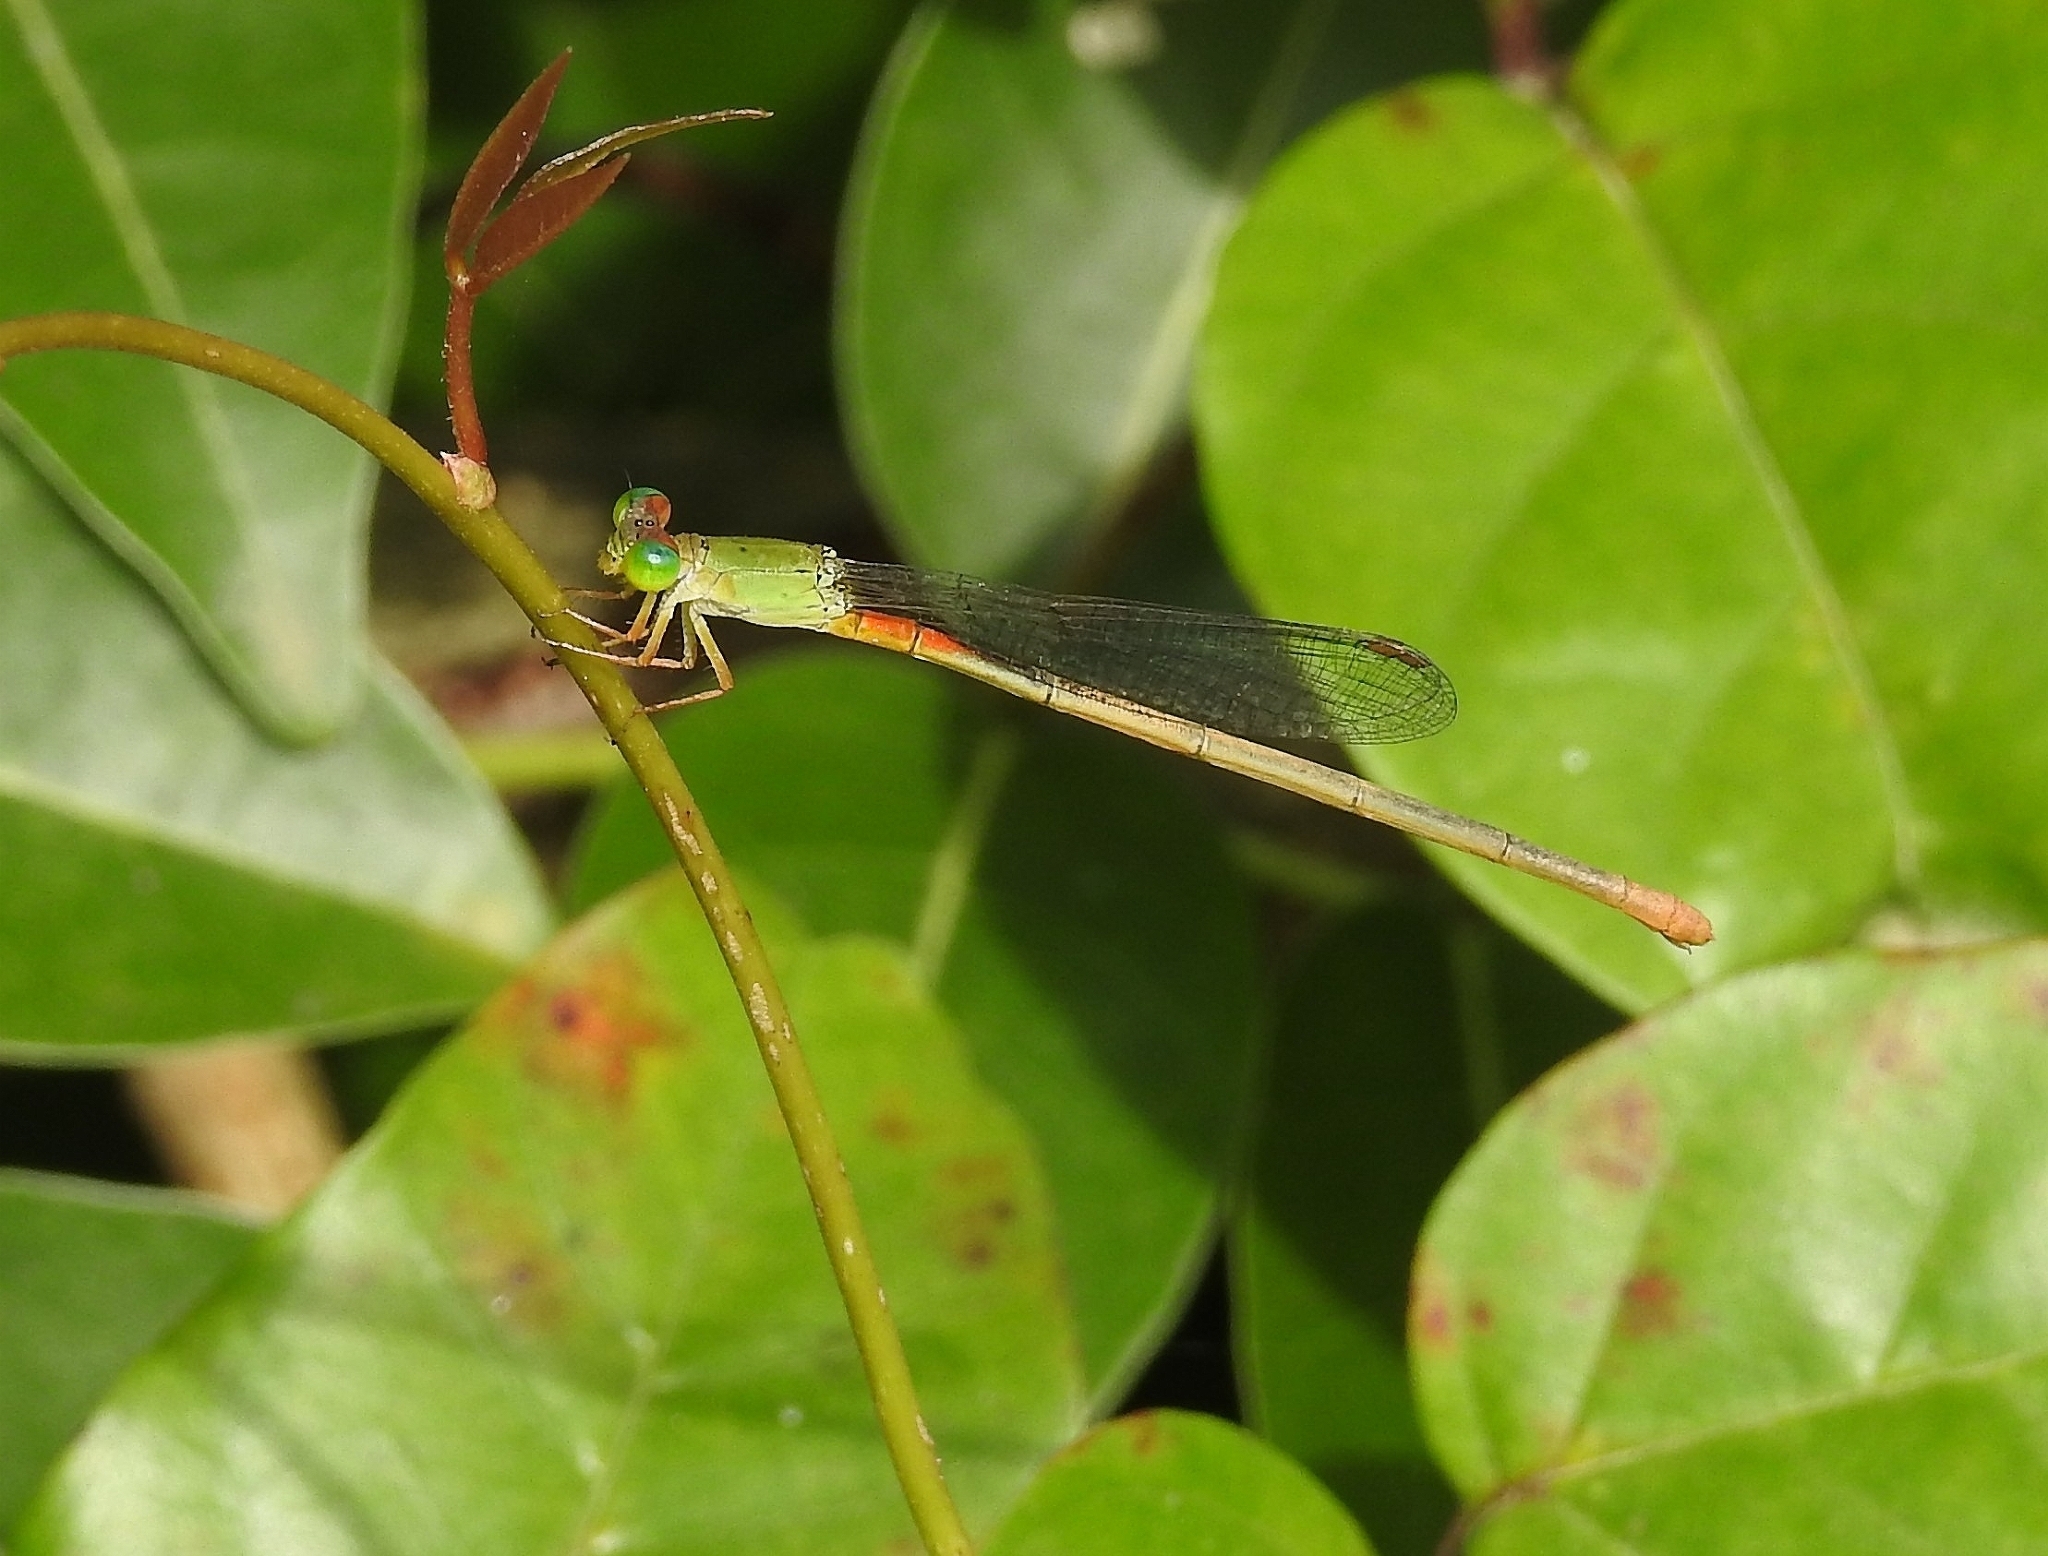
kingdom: Animalia
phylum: Arthropoda
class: Insecta
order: Odonata
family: Coenagrionidae
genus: Ceriagrion
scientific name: Ceriagrion cerinorubellum
